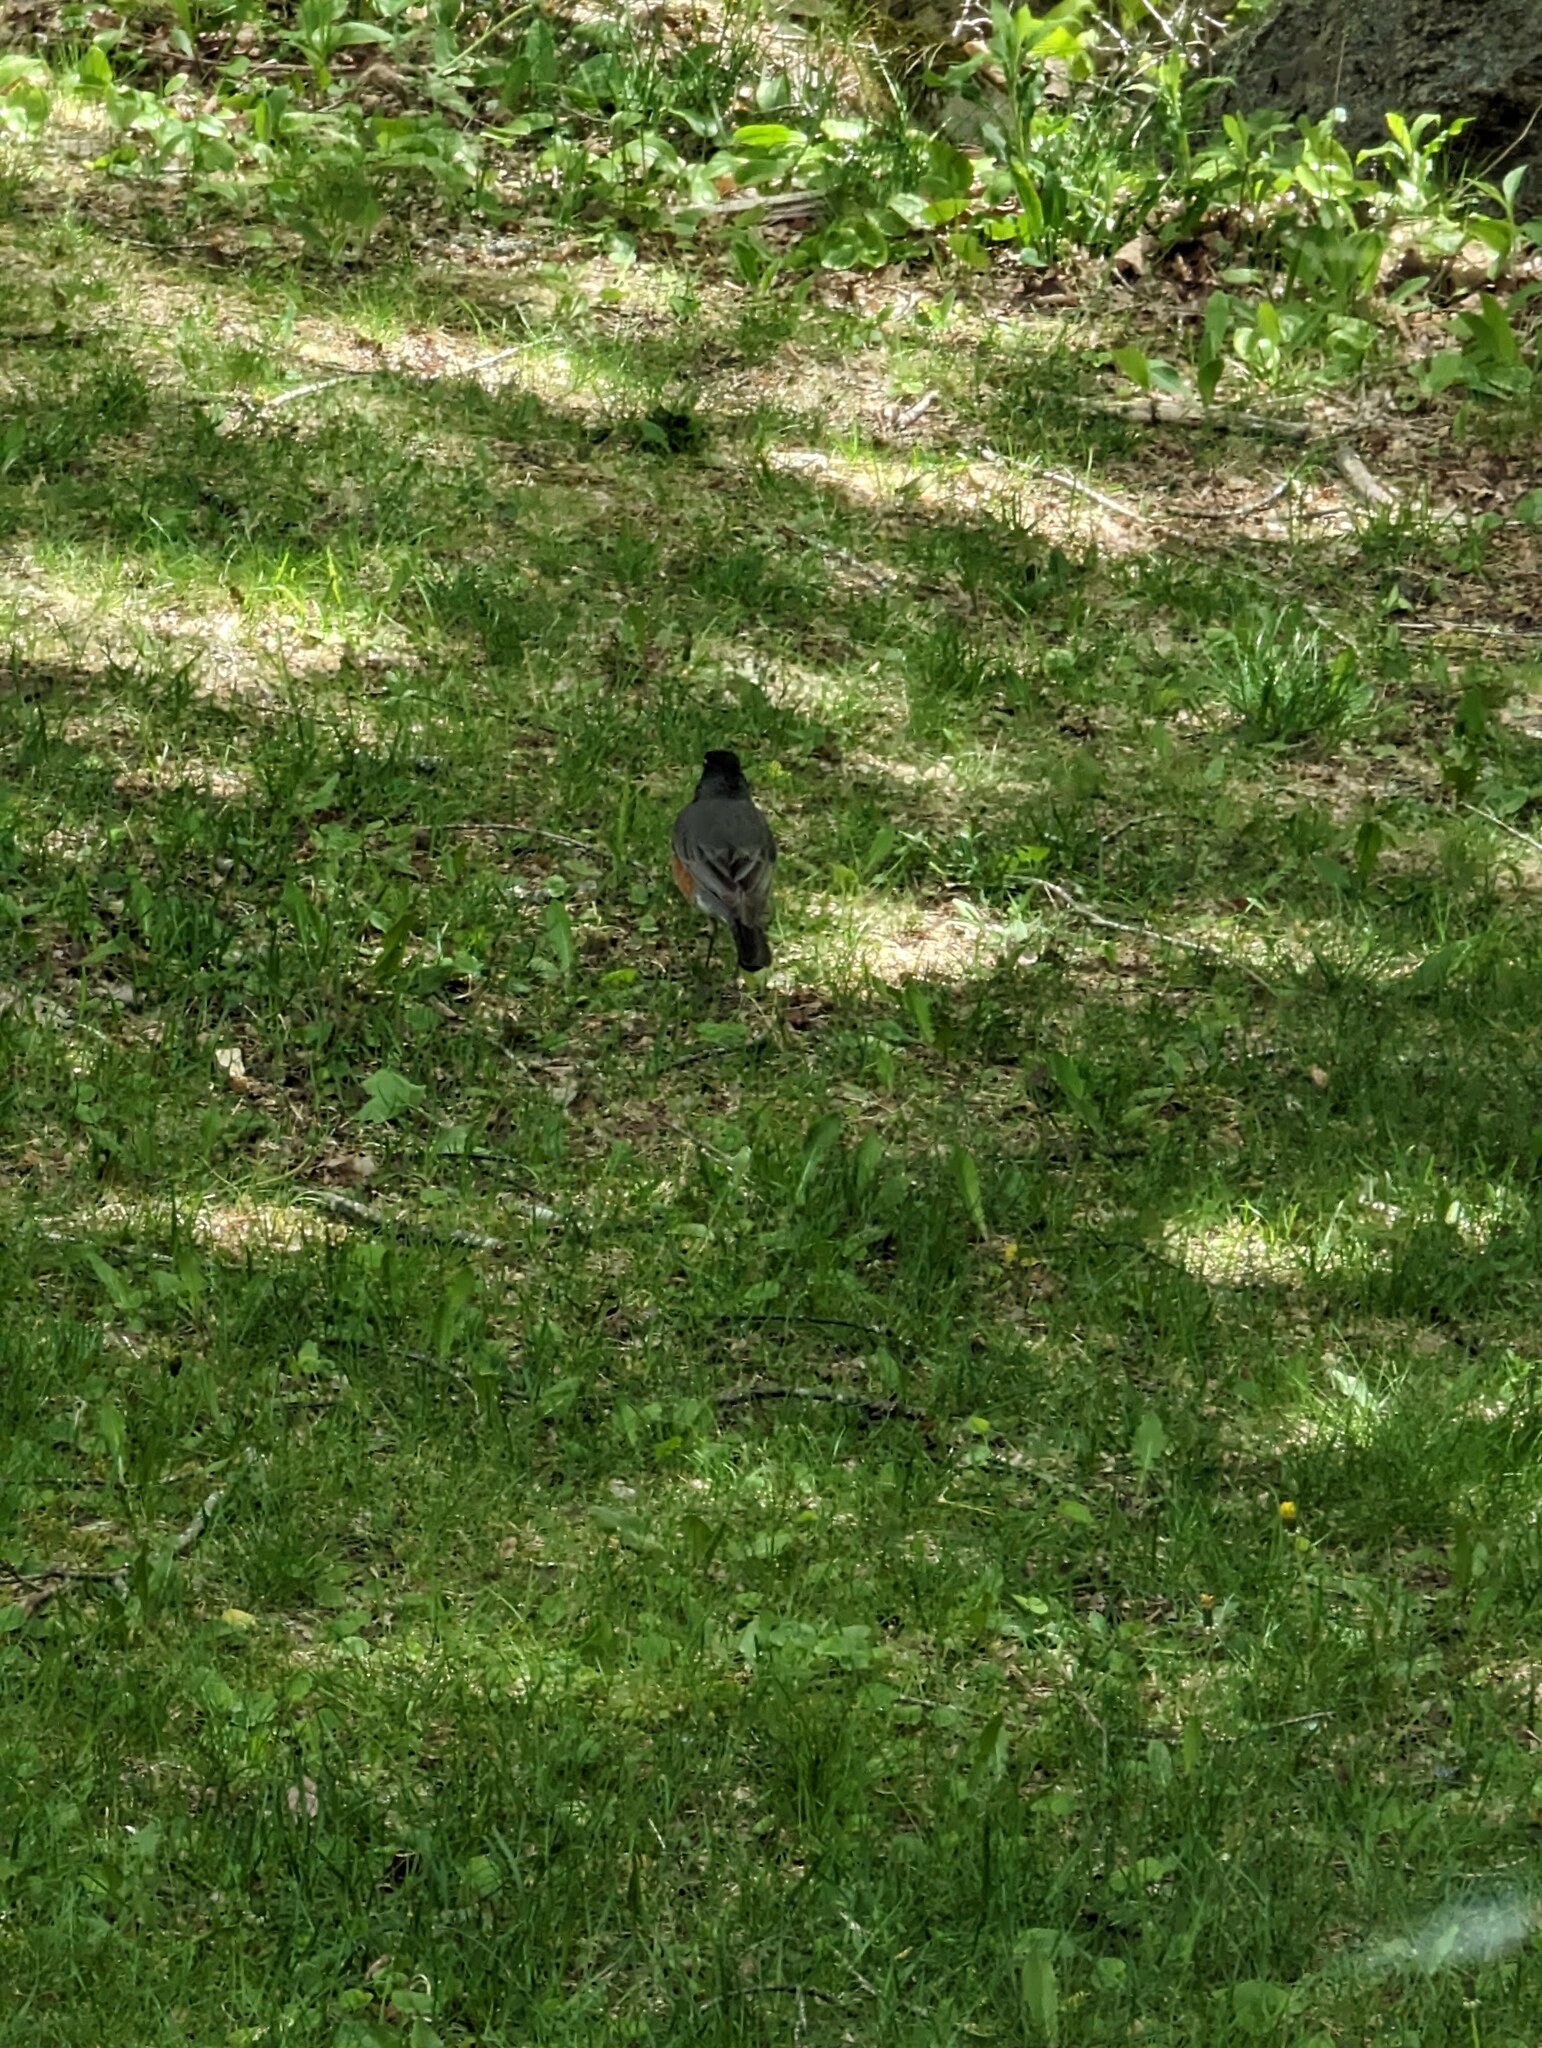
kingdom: Animalia
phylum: Chordata
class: Aves
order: Passeriformes
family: Turdidae
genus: Turdus
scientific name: Turdus migratorius
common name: American robin
